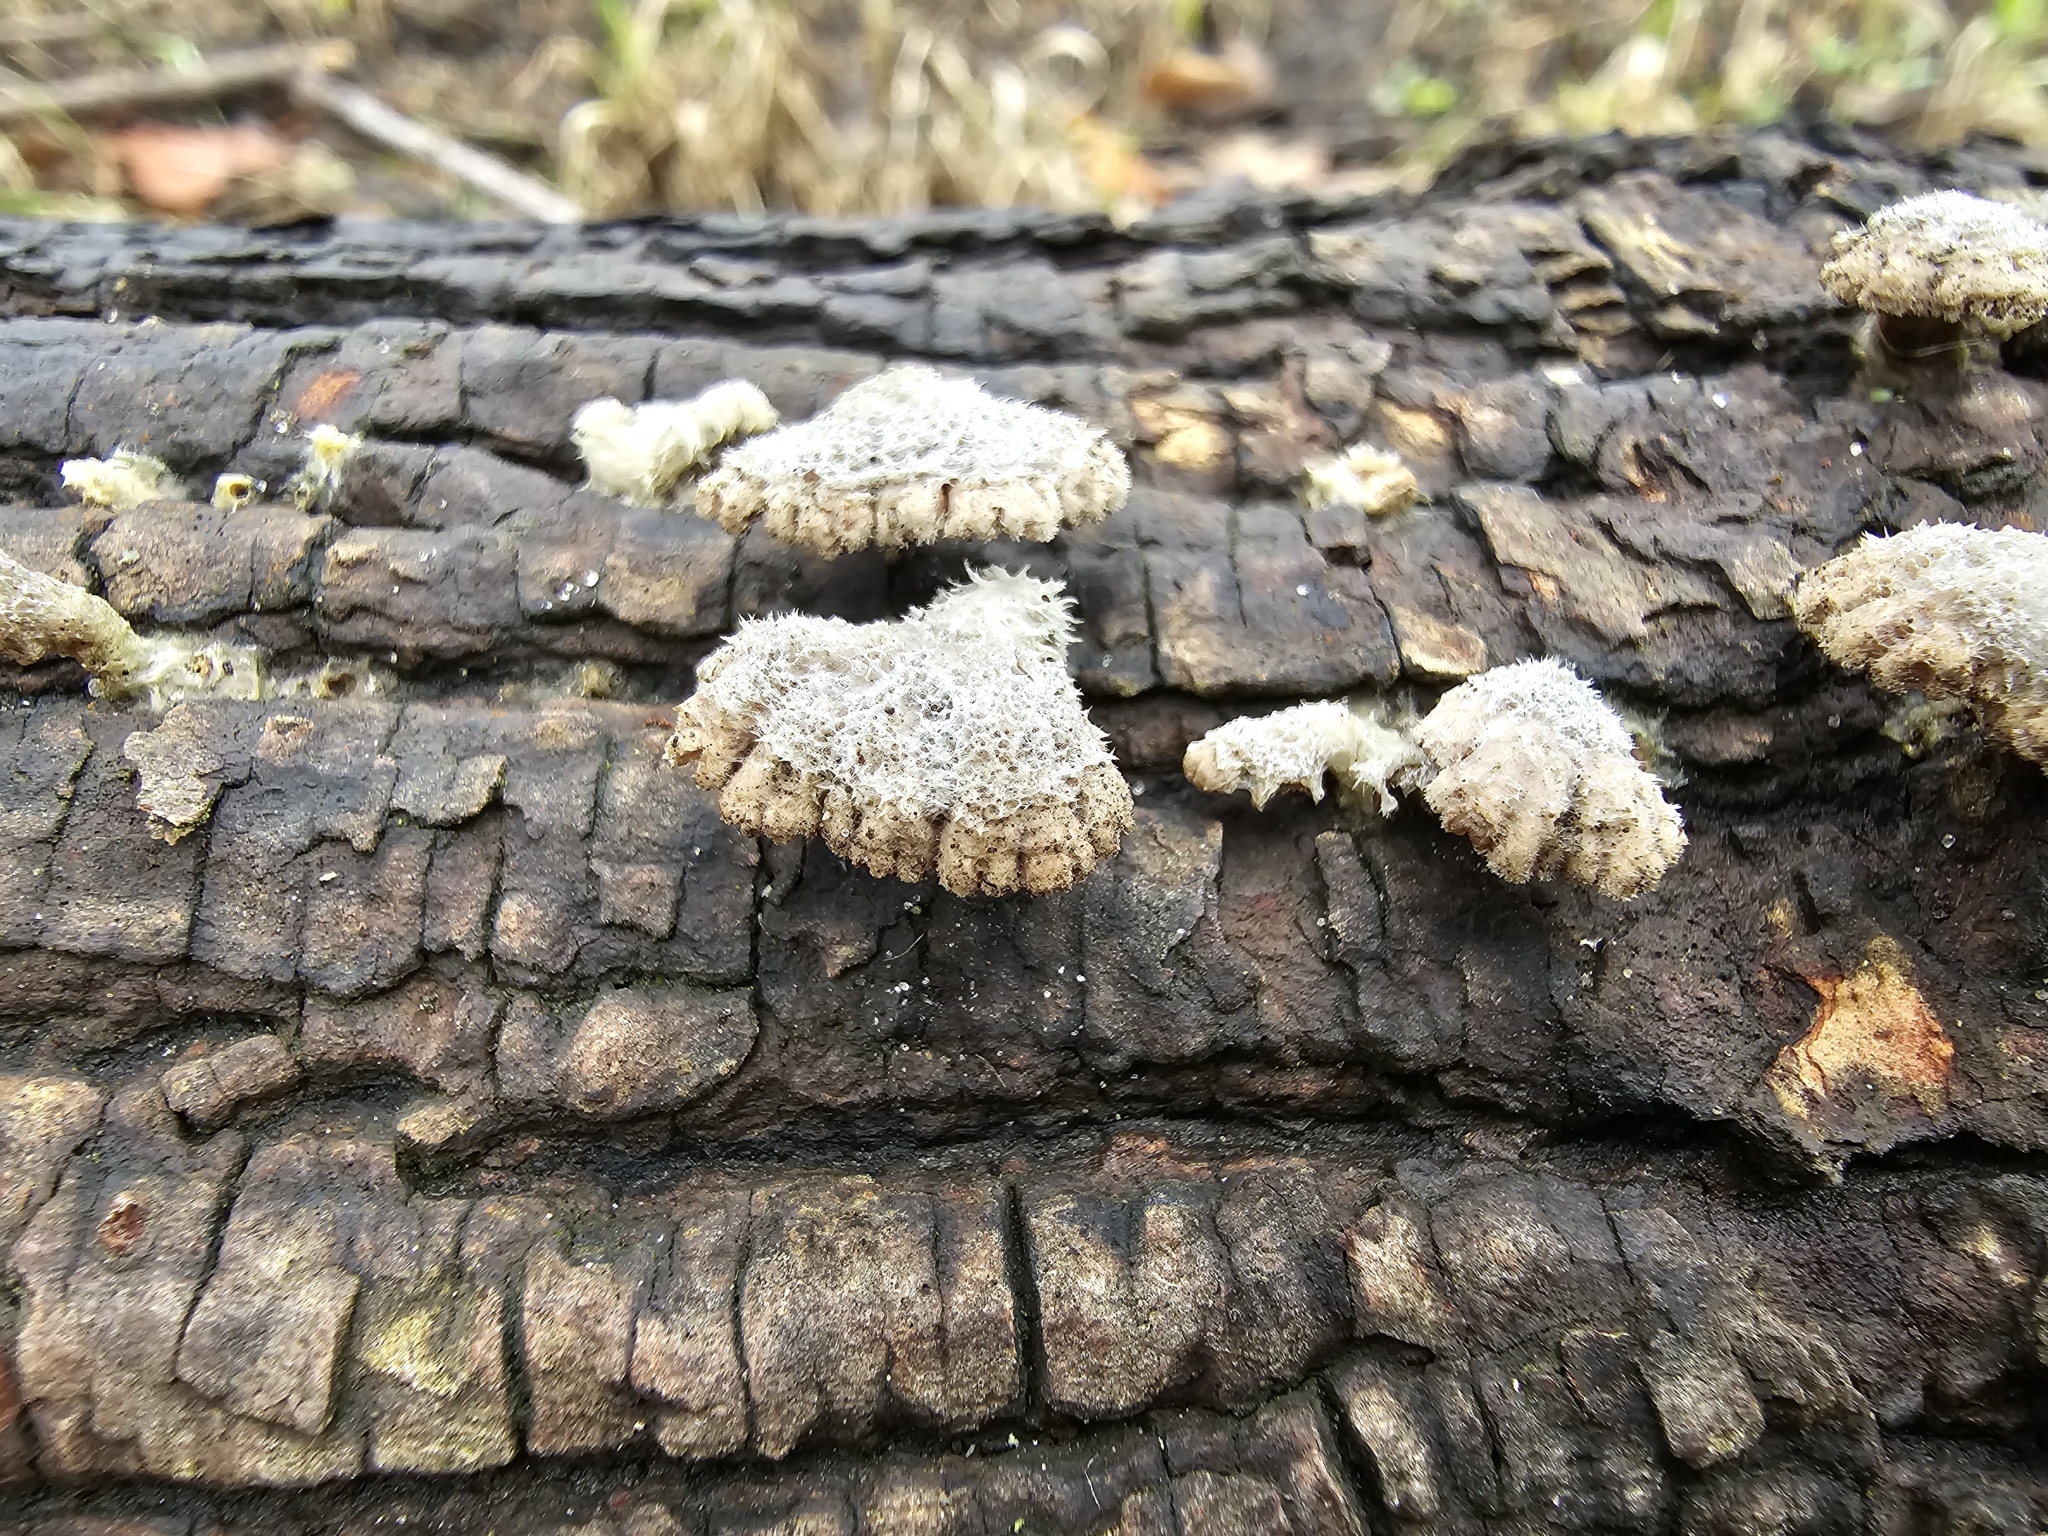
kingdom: Fungi
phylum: Basidiomycota
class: Agaricomycetes
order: Agaricales
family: Schizophyllaceae
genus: Schizophyllum
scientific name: Schizophyllum commune
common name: Common porecrust
